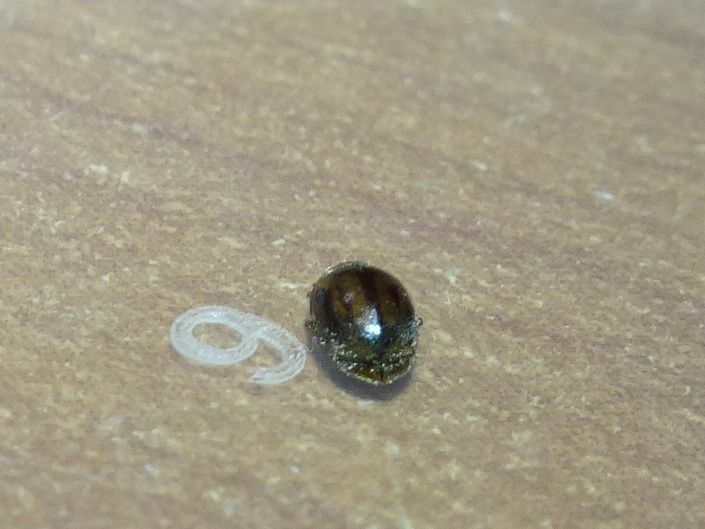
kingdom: Animalia
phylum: Arthropoda
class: Insecta
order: Coleoptera
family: Coccinellidae
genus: Rhyzobius
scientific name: Rhyzobius chrysomeloides
